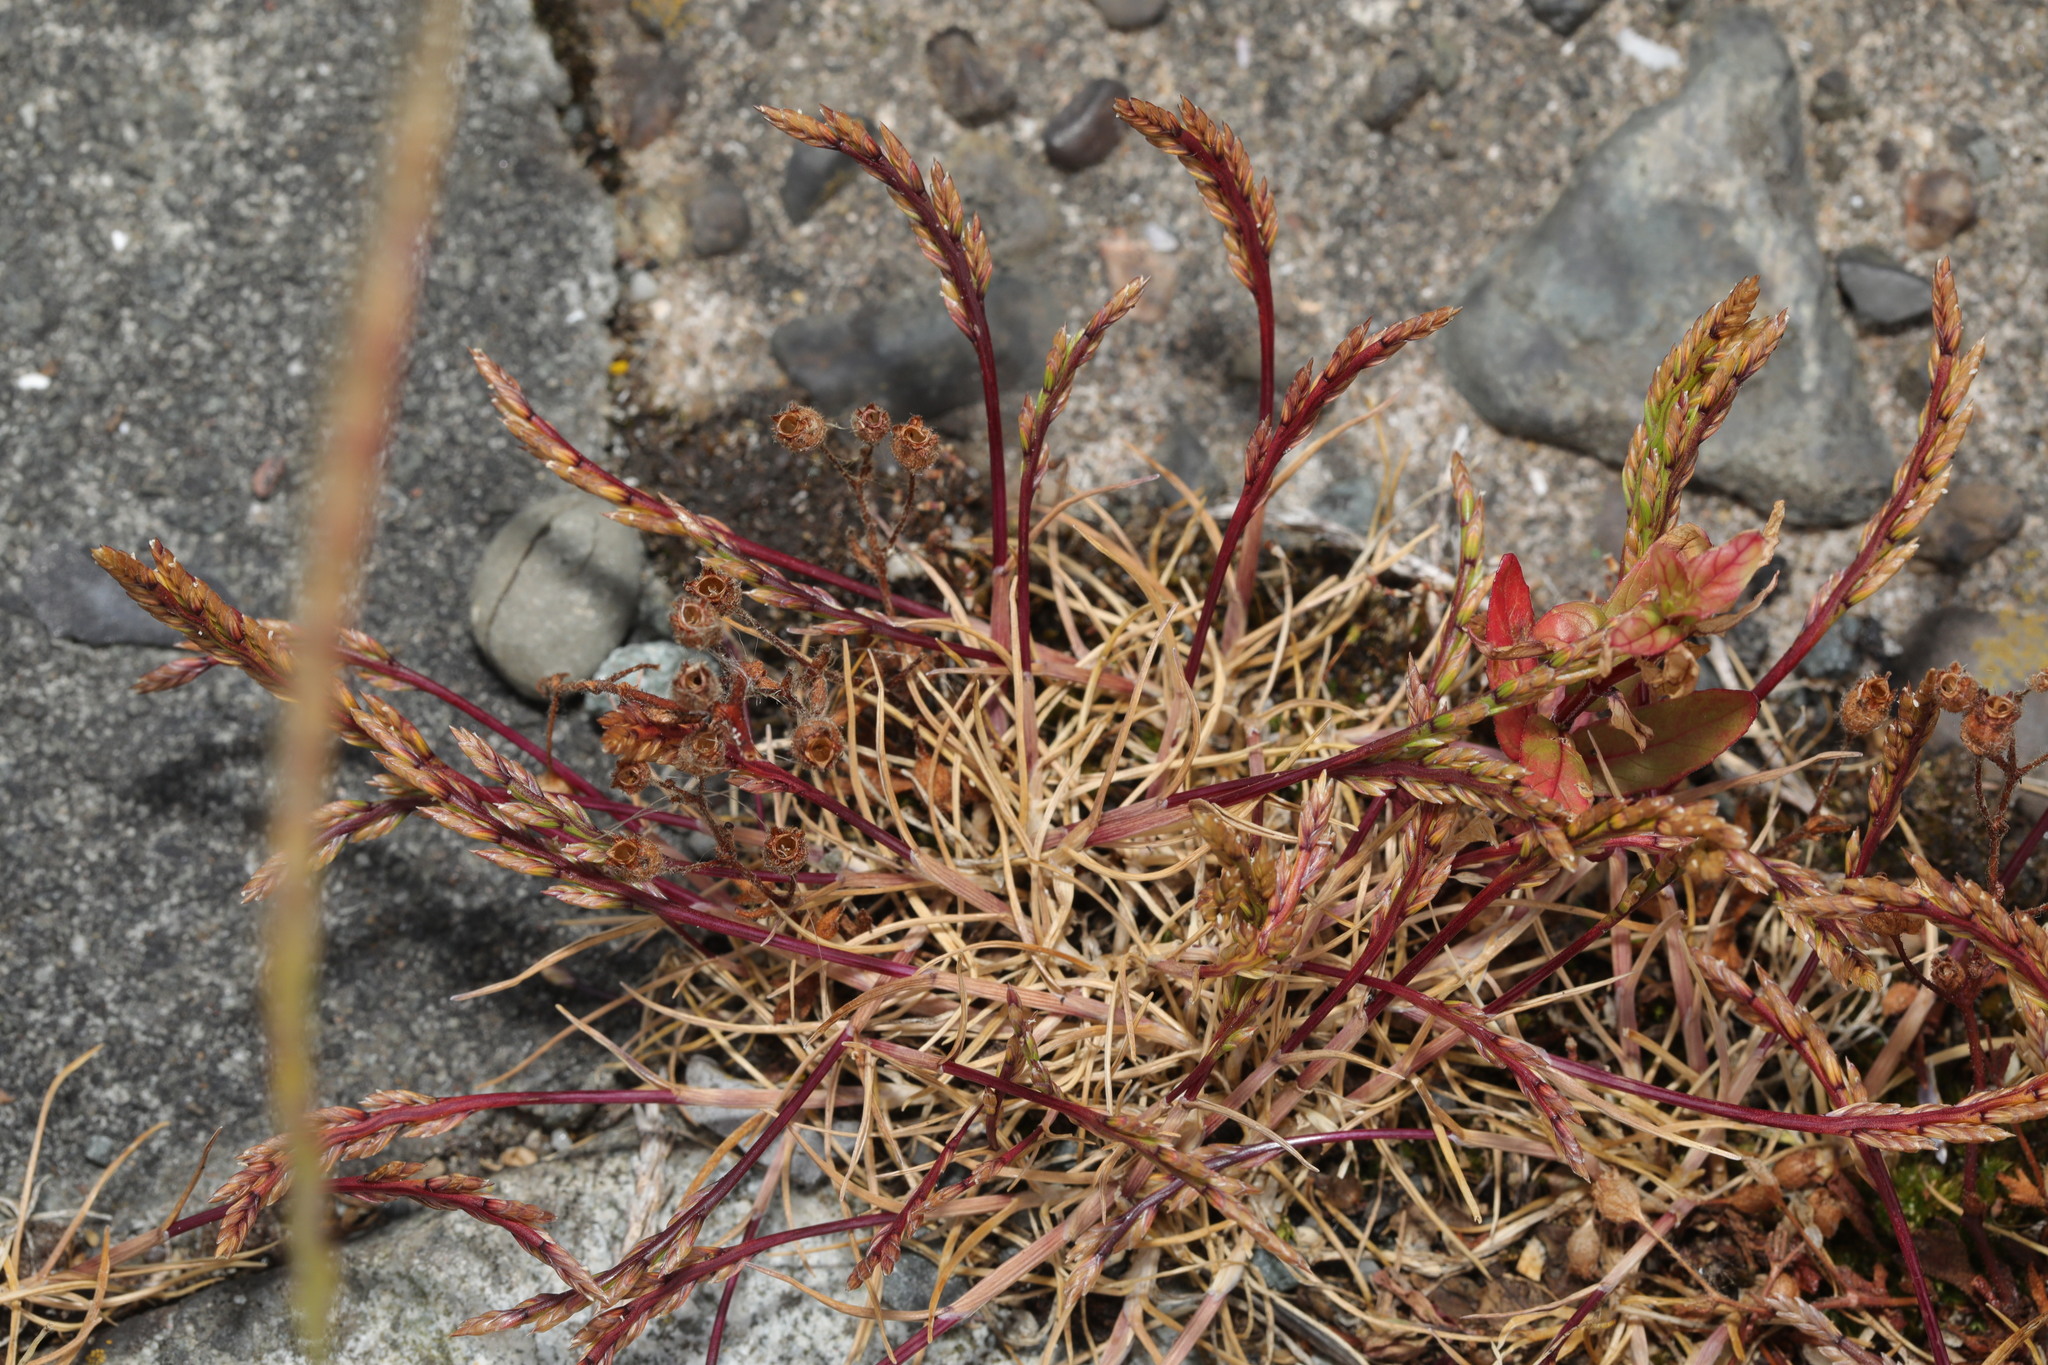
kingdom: Plantae
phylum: Tracheophyta
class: Liliopsida
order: Poales
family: Poaceae
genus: Catapodium
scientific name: Catapodium marinum
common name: Sea fern-grass
